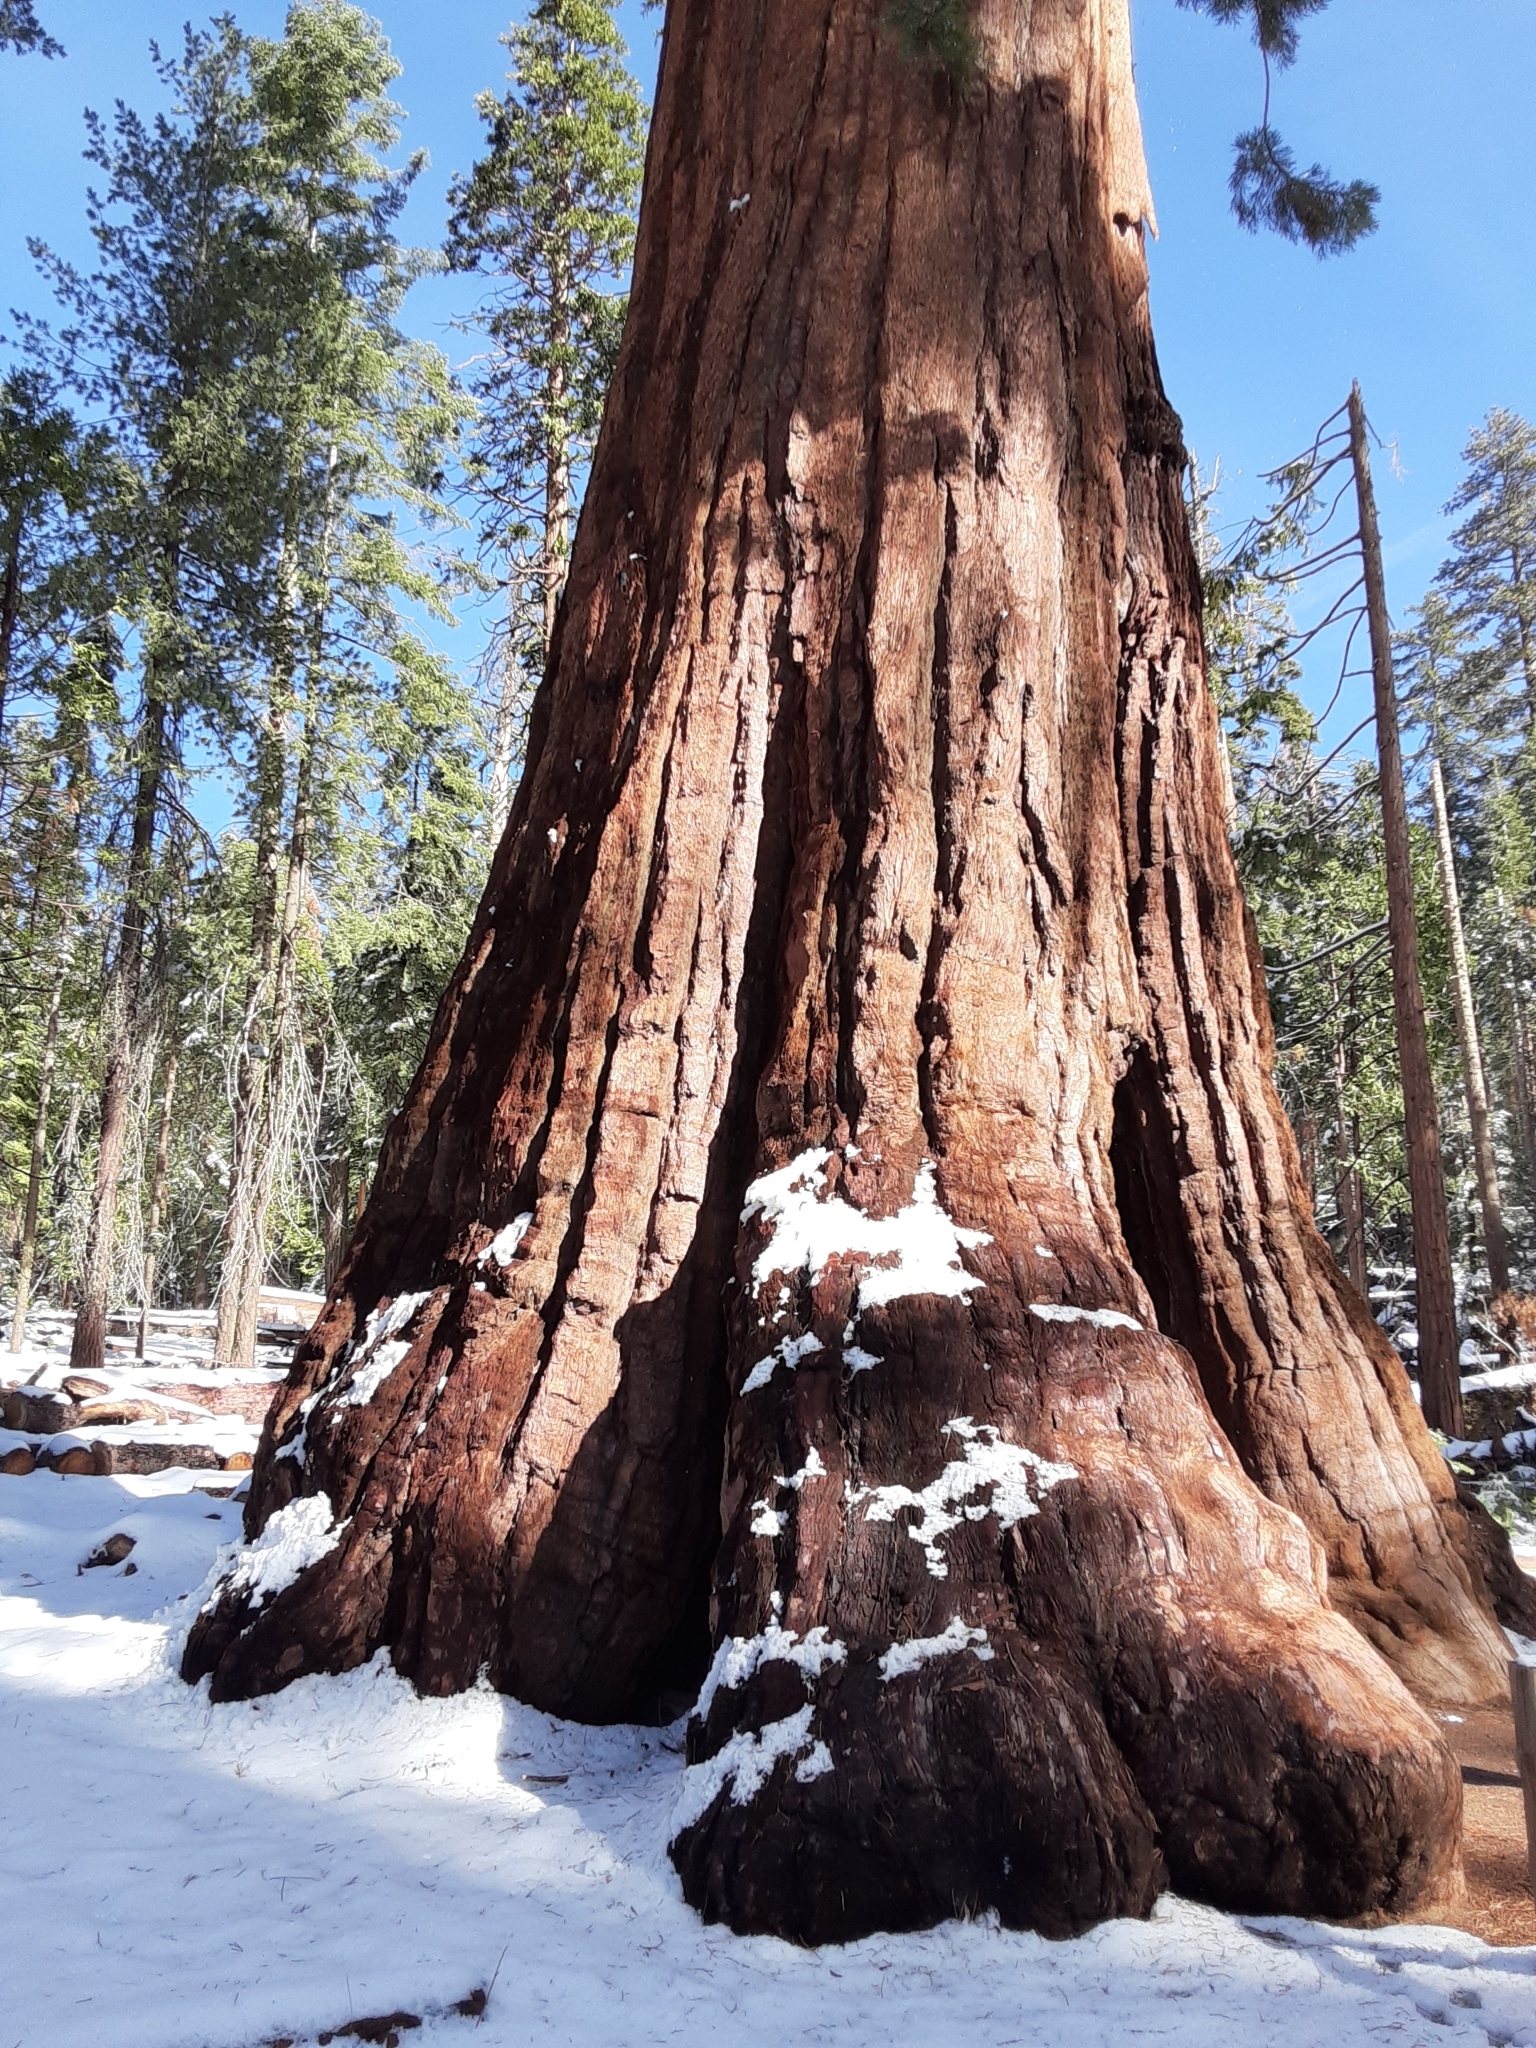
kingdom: Plantae
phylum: Tracheophyta
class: Pinopsida
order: Pinales
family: Cupressaceae
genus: Sequoiadendron
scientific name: Sequoiadendron giganteum
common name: Wellingtonia
